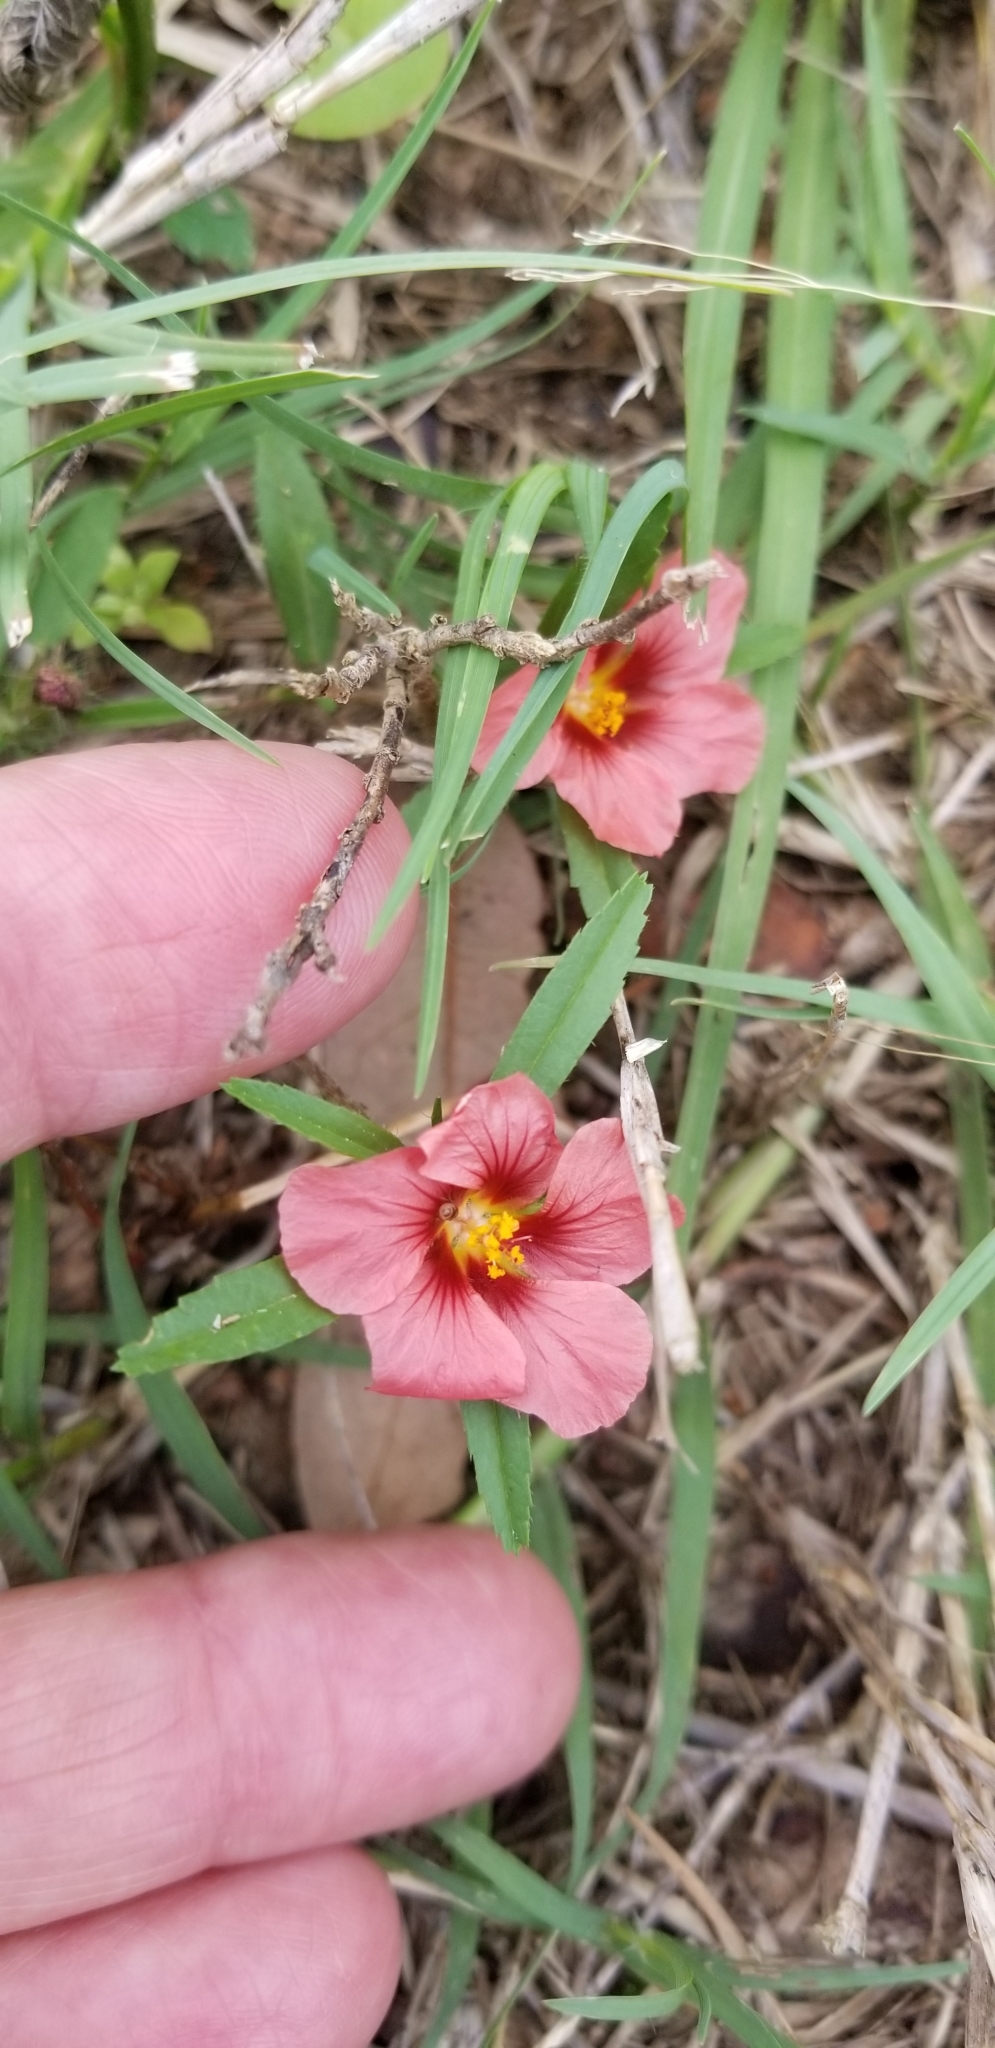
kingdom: Plantae
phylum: Tracheophyta
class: Magnoliopsida
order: Malvales
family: Malvaceae
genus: Sida
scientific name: Sida ciliaris
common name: Bracted fanpetals
